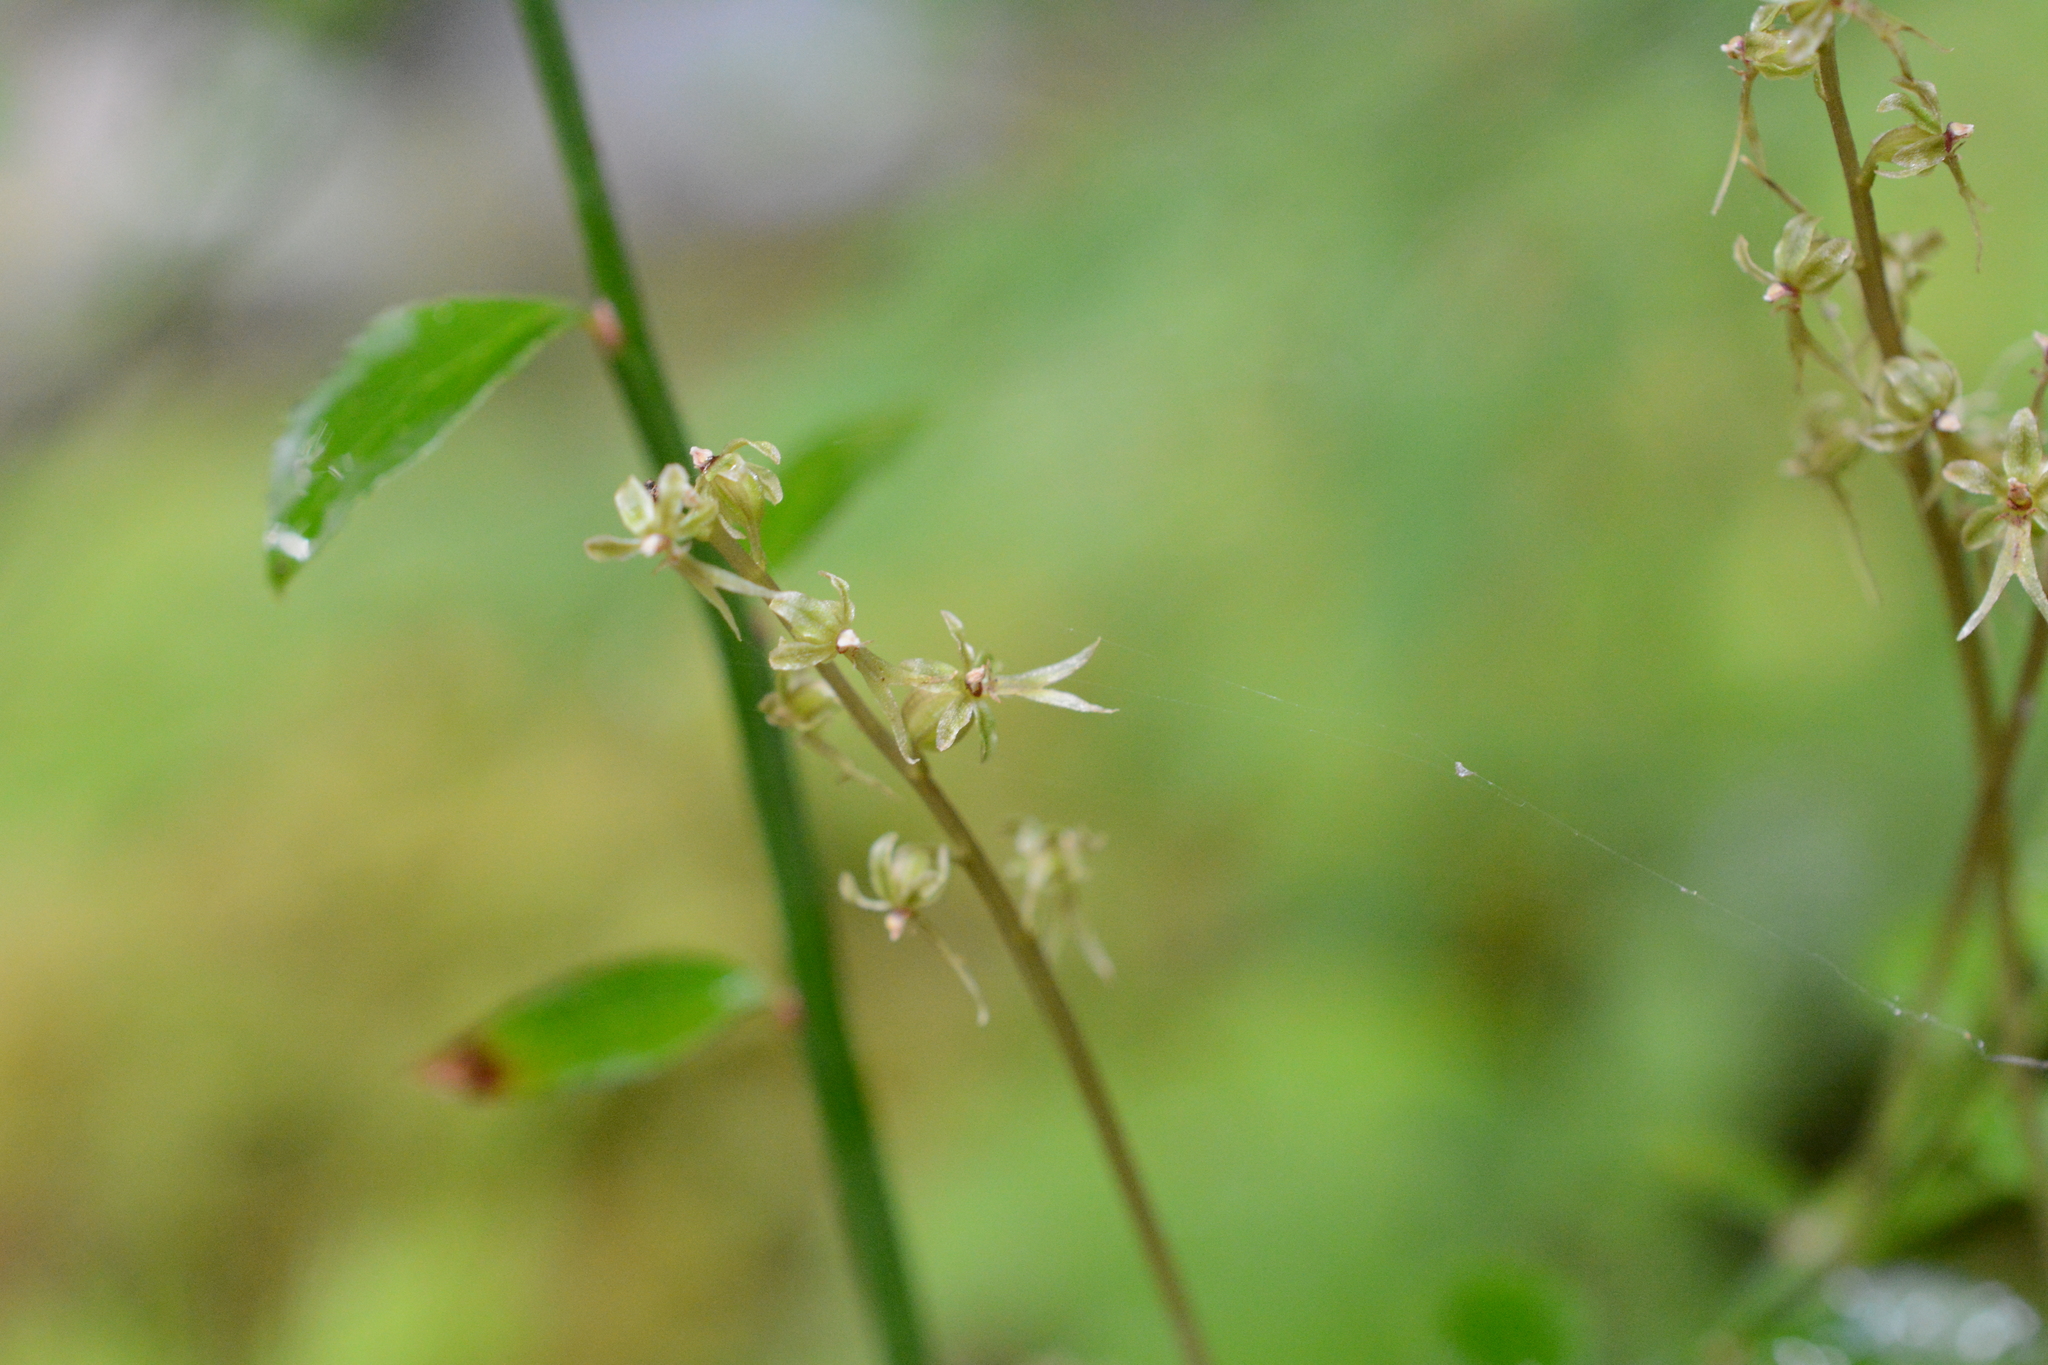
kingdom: Plantae
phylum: Tracheophyta
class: Liliopsida
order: Asparagales
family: Orchidaceae
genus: Neottia
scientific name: Neottia cordata
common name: Lesser twayblade
